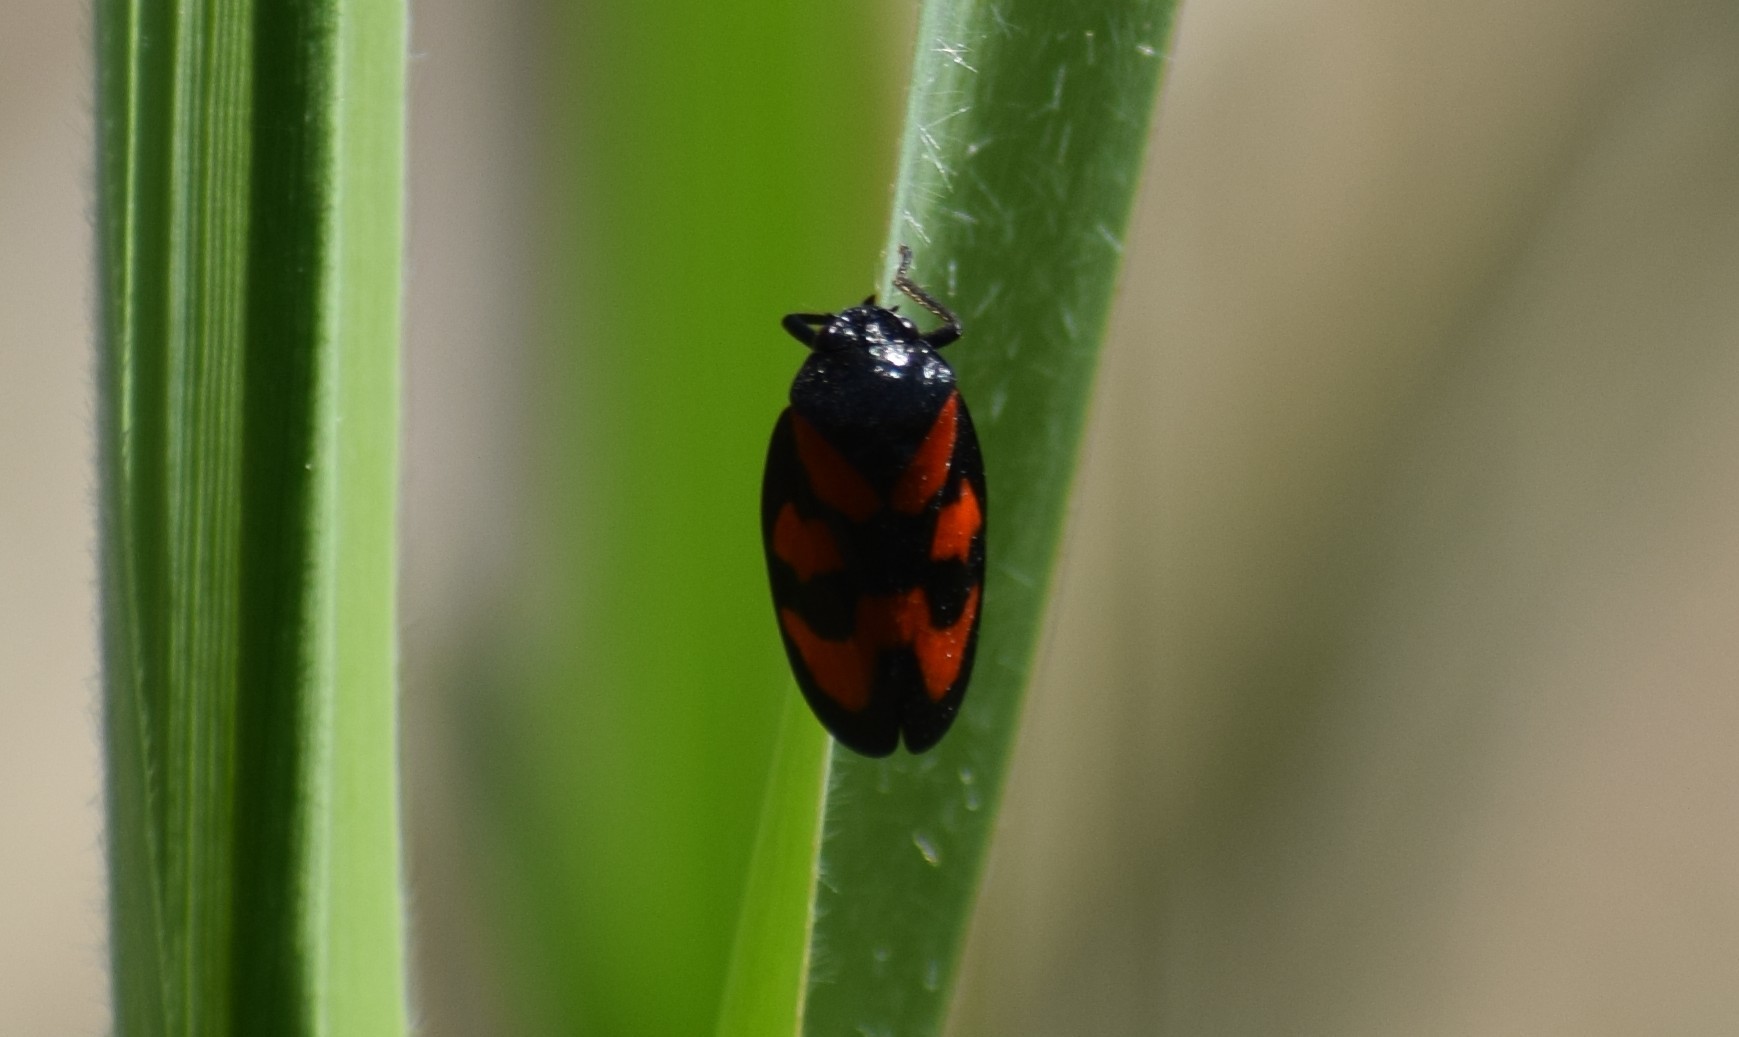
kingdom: Animalia
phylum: Arthropoda
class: Insecta
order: Hemiptera
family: Cercopidae
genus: Cercopis
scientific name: Cercopis vulnerata
